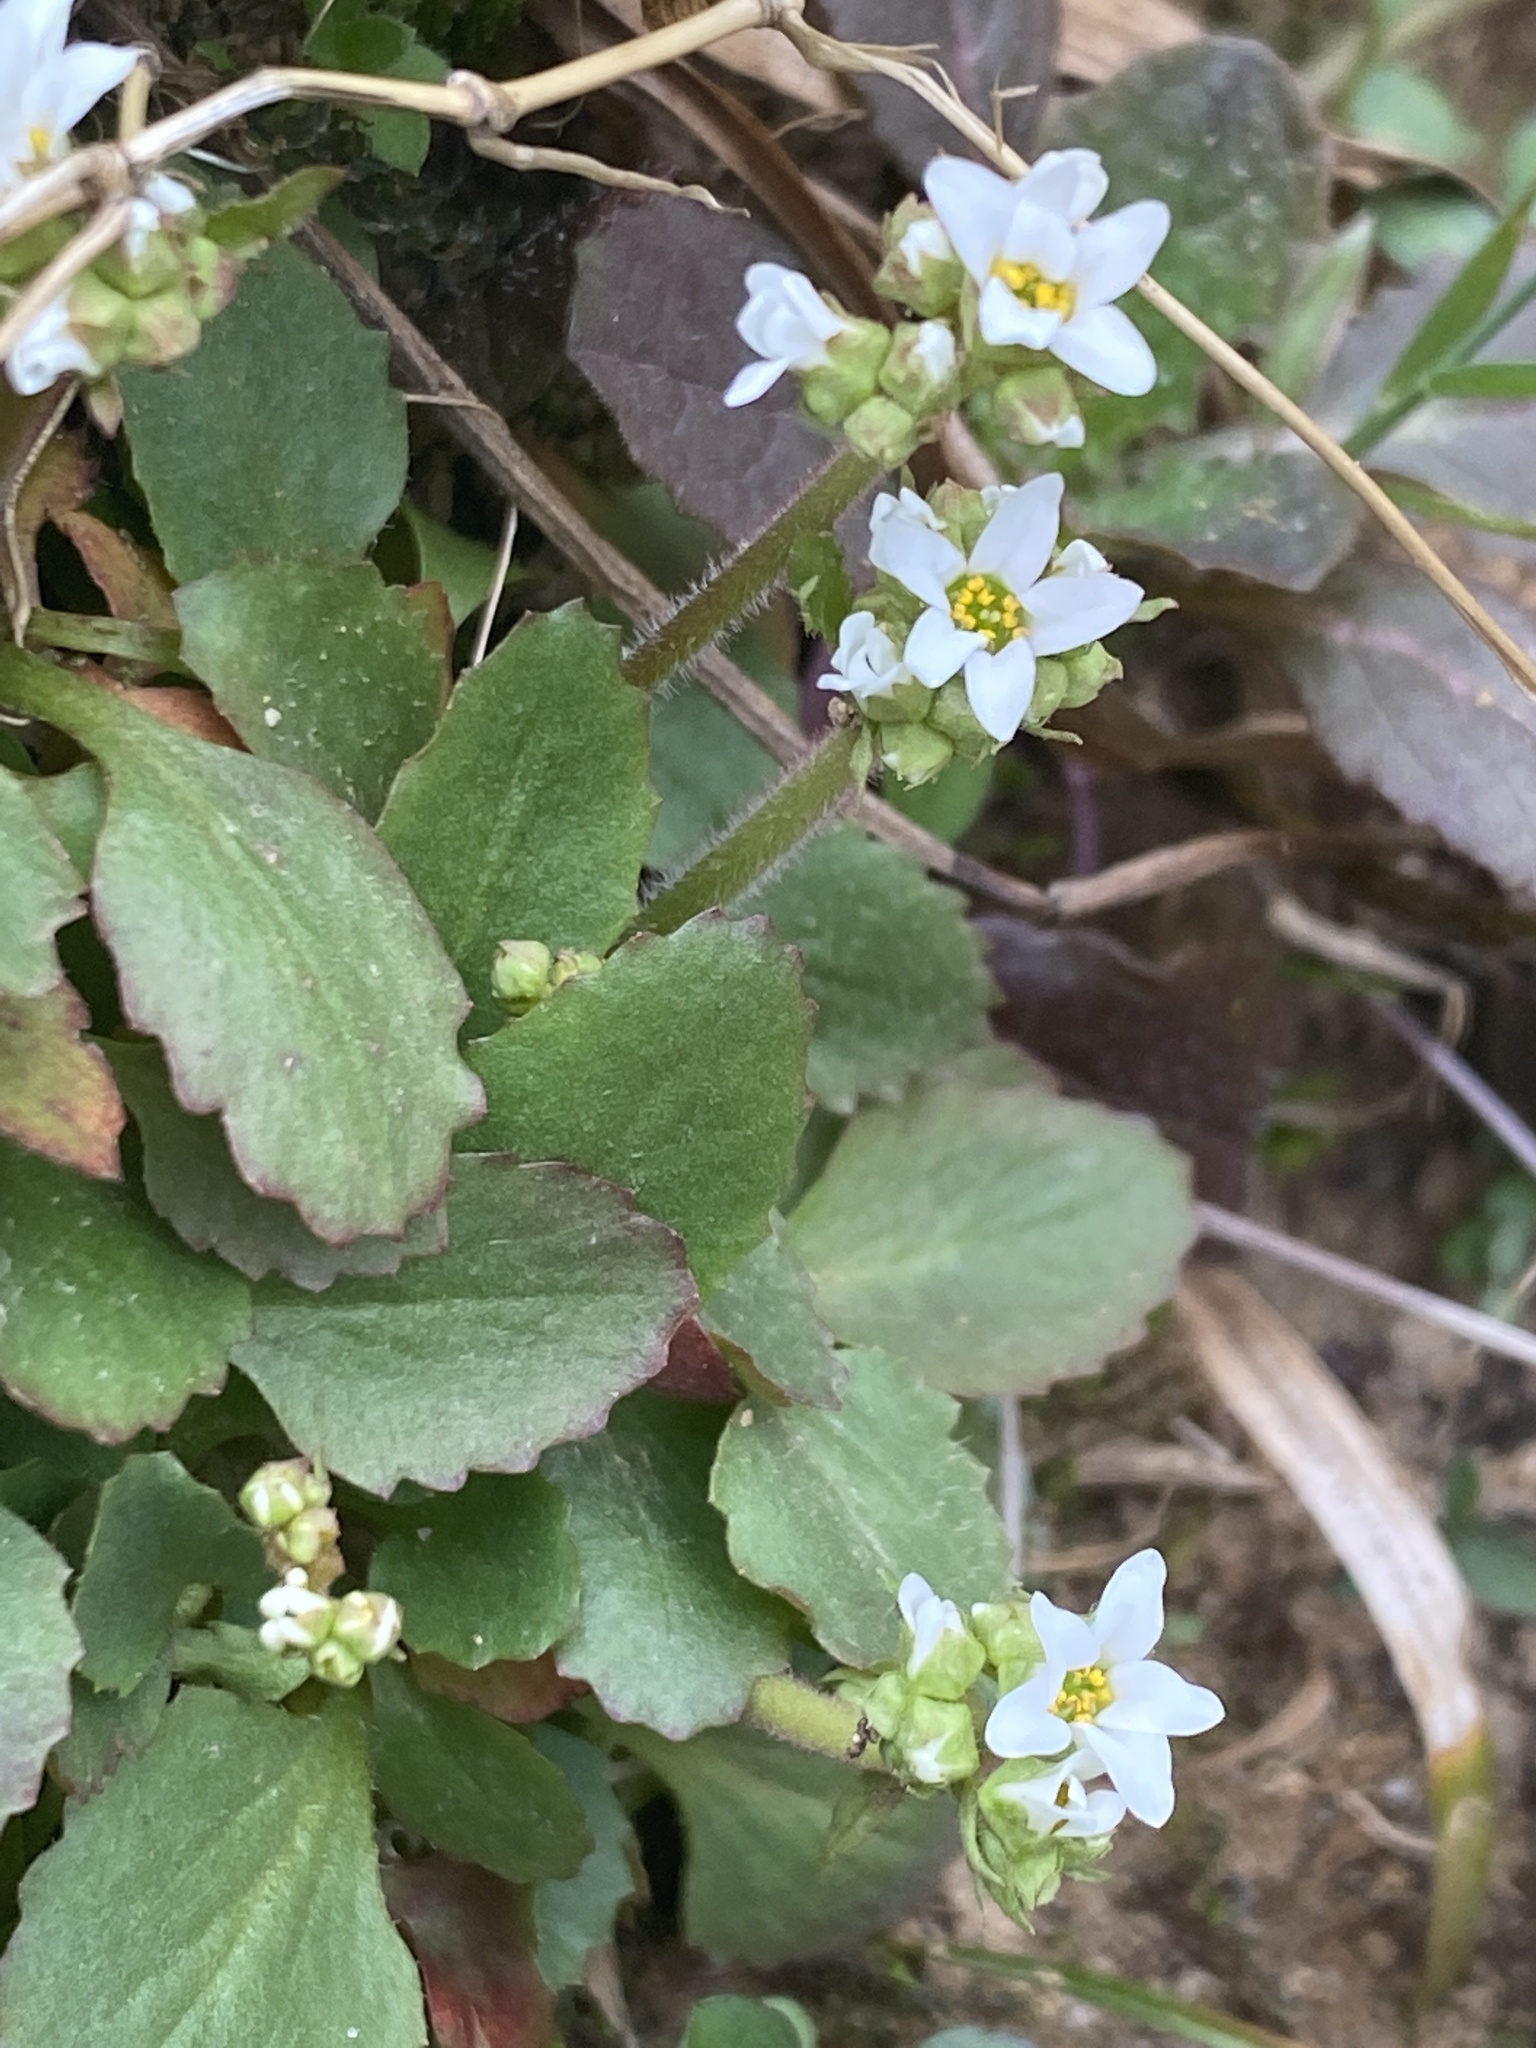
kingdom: Plantae
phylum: Tracheophyta
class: Magnoliopsida
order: Saxifragales
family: Saxifragaceae
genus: Micranthes
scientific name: Micranthes virginiensis
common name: Early saxifrage
